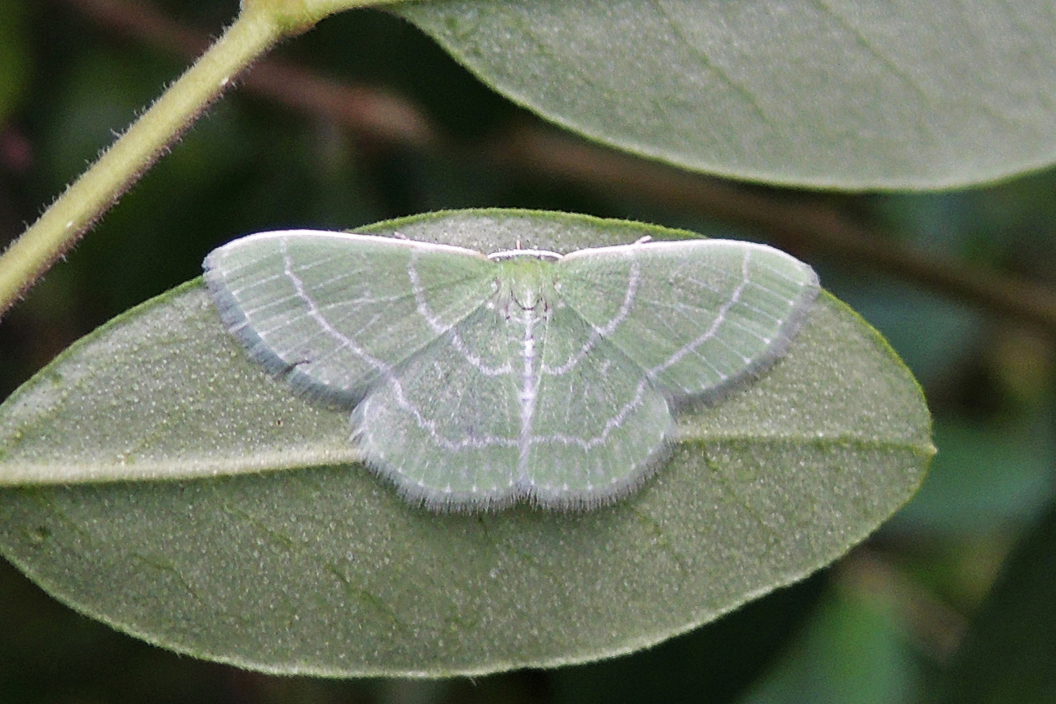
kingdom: Animalia
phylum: Arthropoda
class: Insecta
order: Lepidoptera
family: Geometridae
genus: Synchlora
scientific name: Synchlora aerata
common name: Wavy-lined emerald
